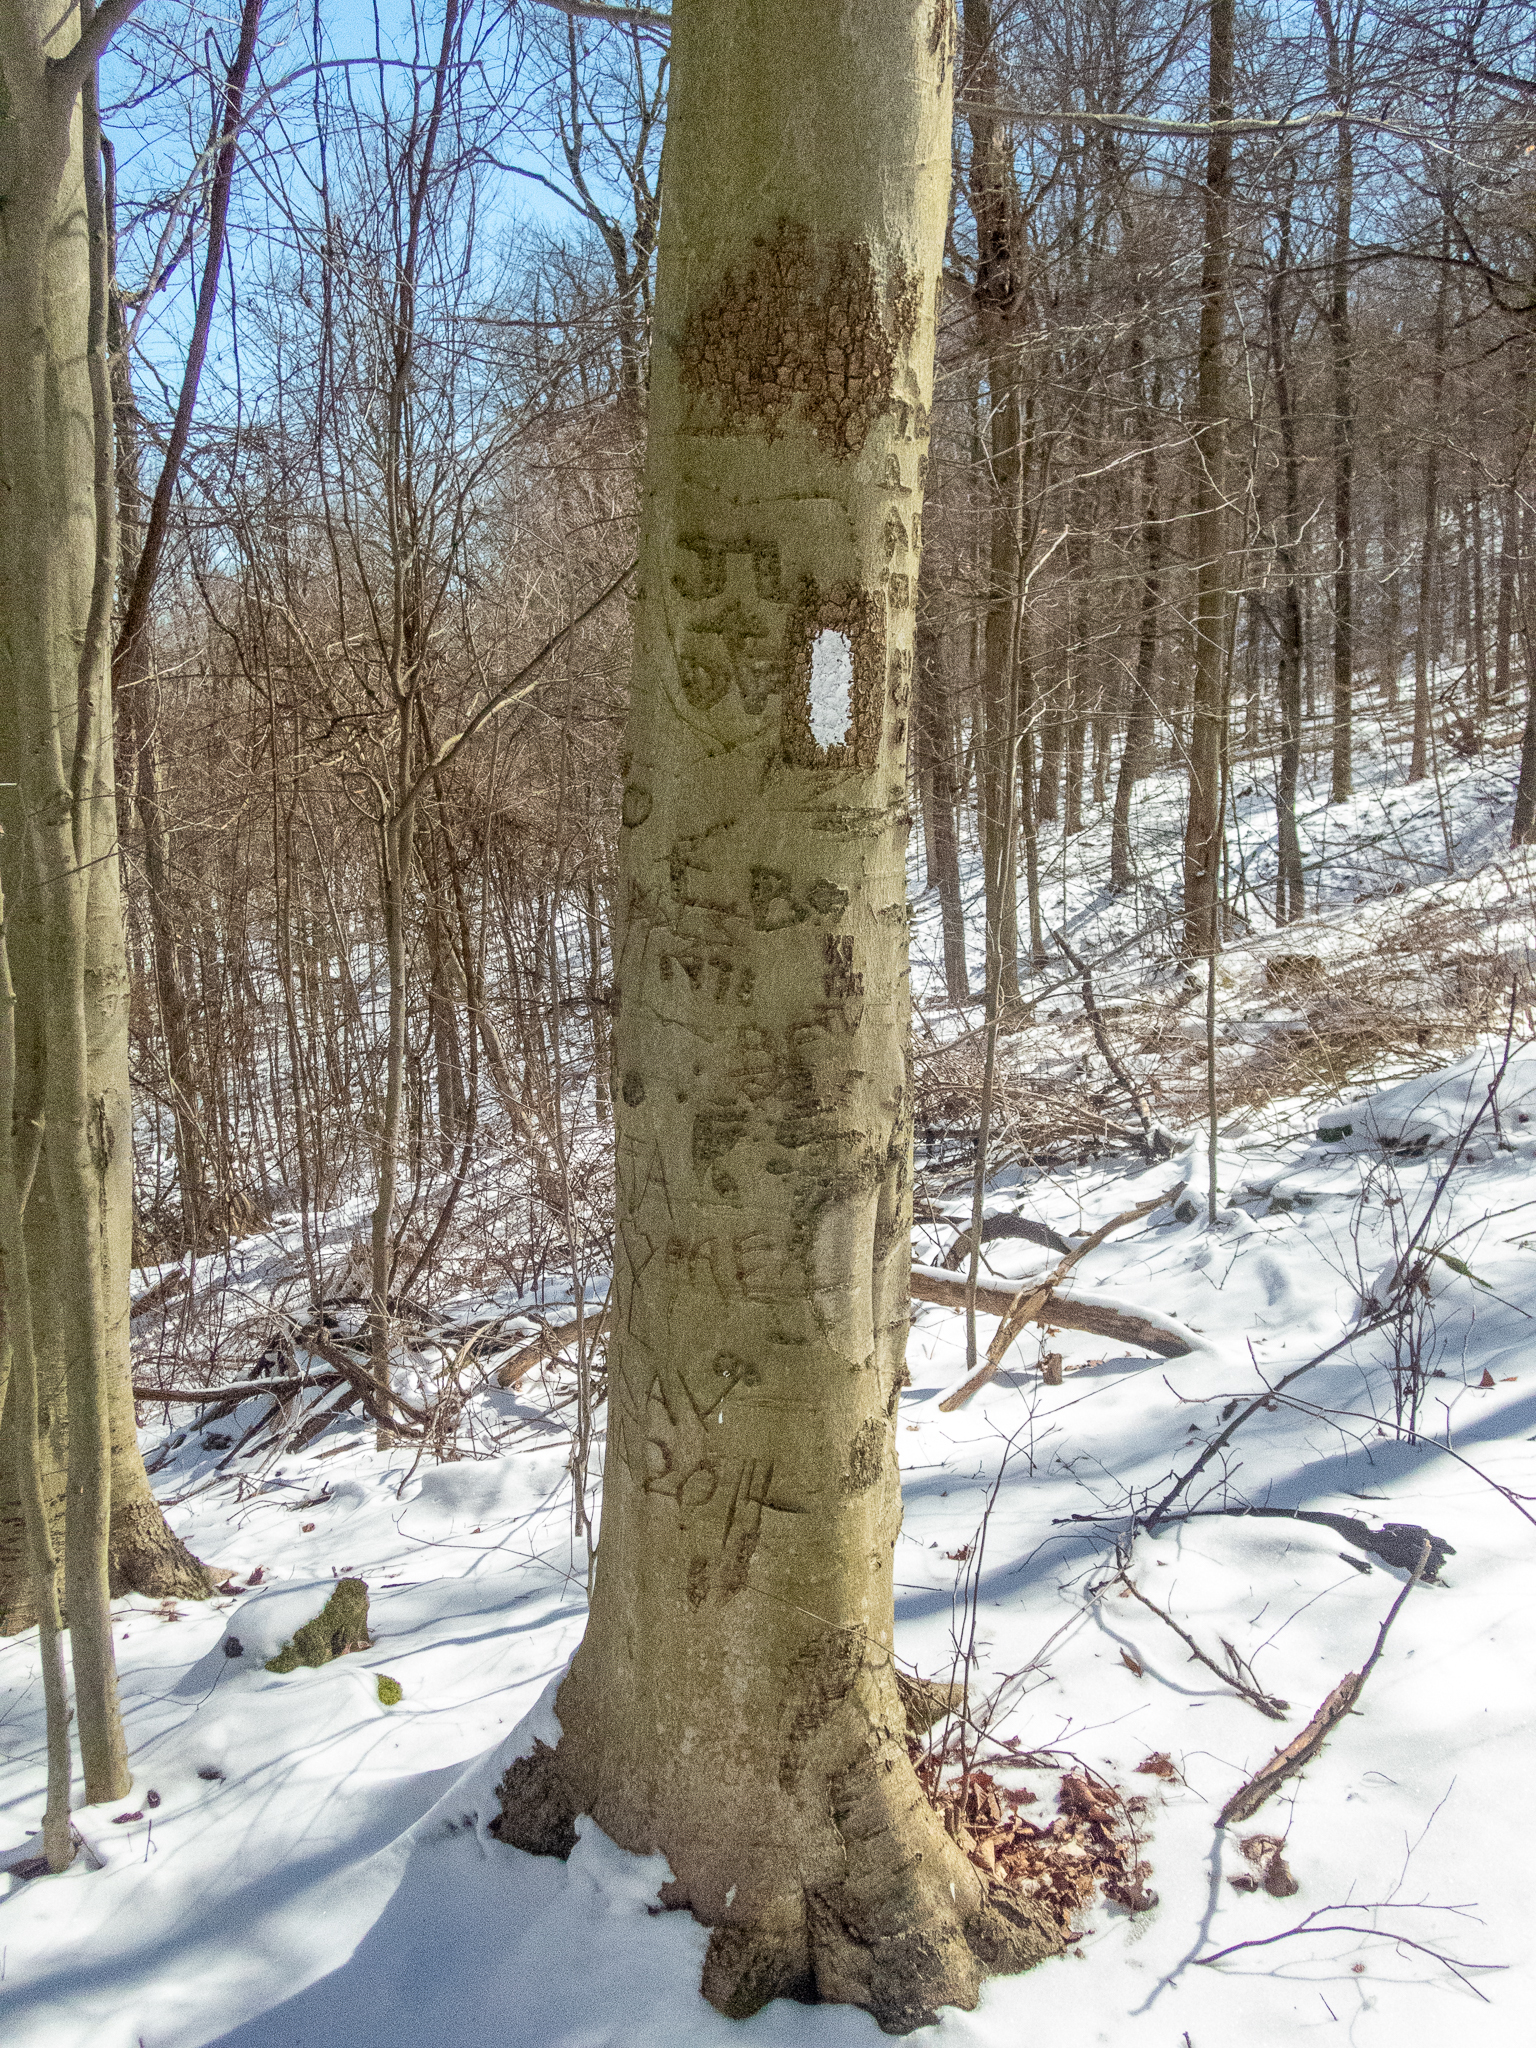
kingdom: Plantae
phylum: Tracheophyta
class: Magnoliopsida
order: Fagales
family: Fagaceae
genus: Fagus
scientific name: Fagus grandifolia
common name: American beech
